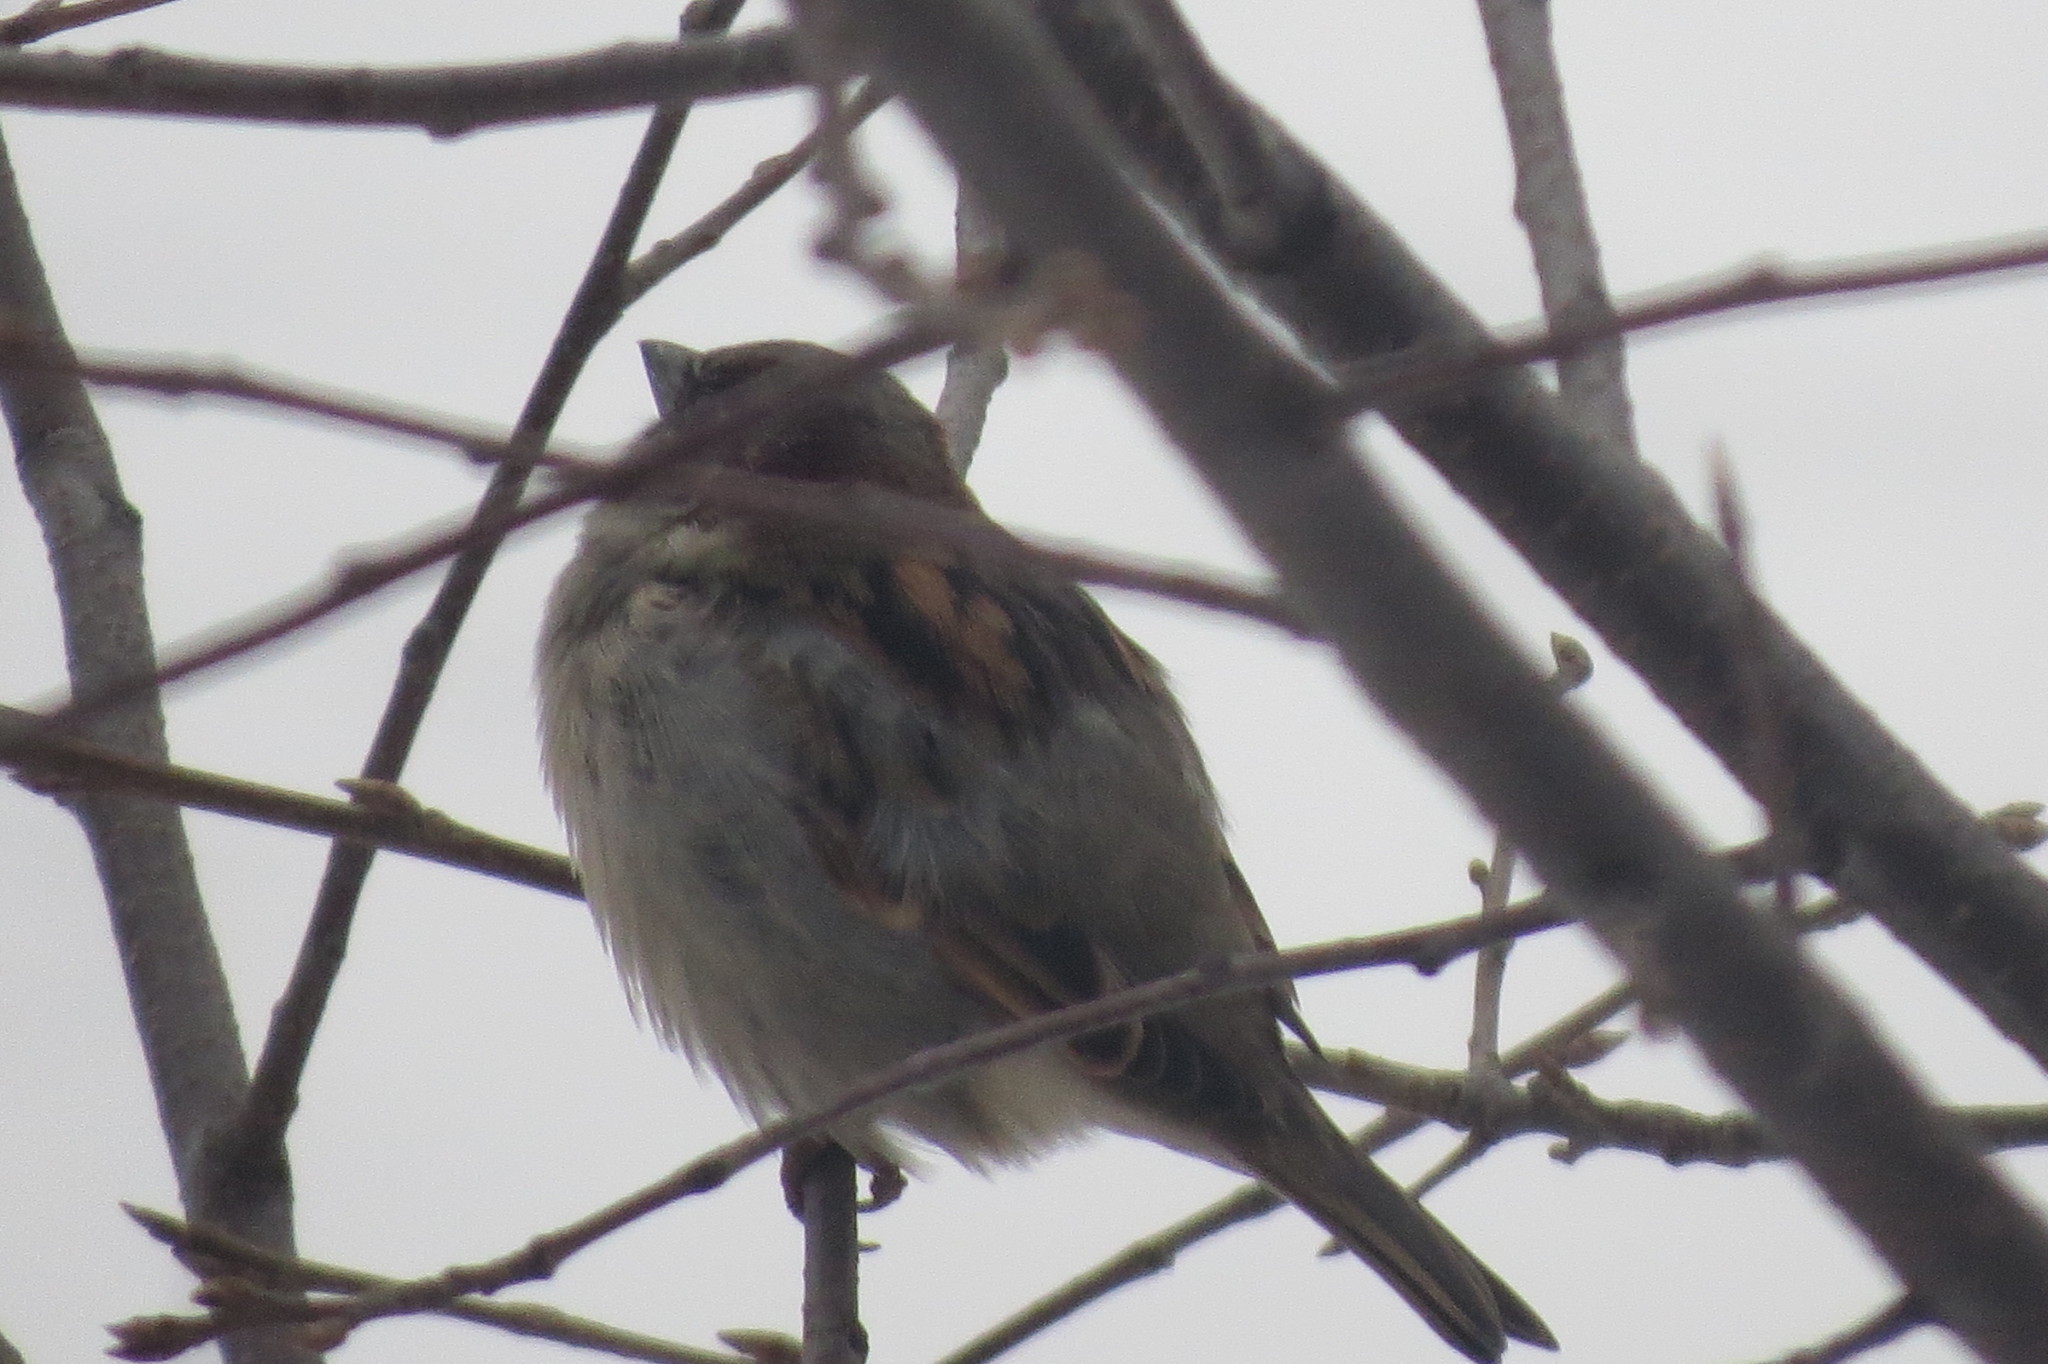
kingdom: Animalia
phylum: Chordata
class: Aves
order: Passeriformes
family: Passeridae
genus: Passer
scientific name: Passer domesticus
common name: House sparrow
